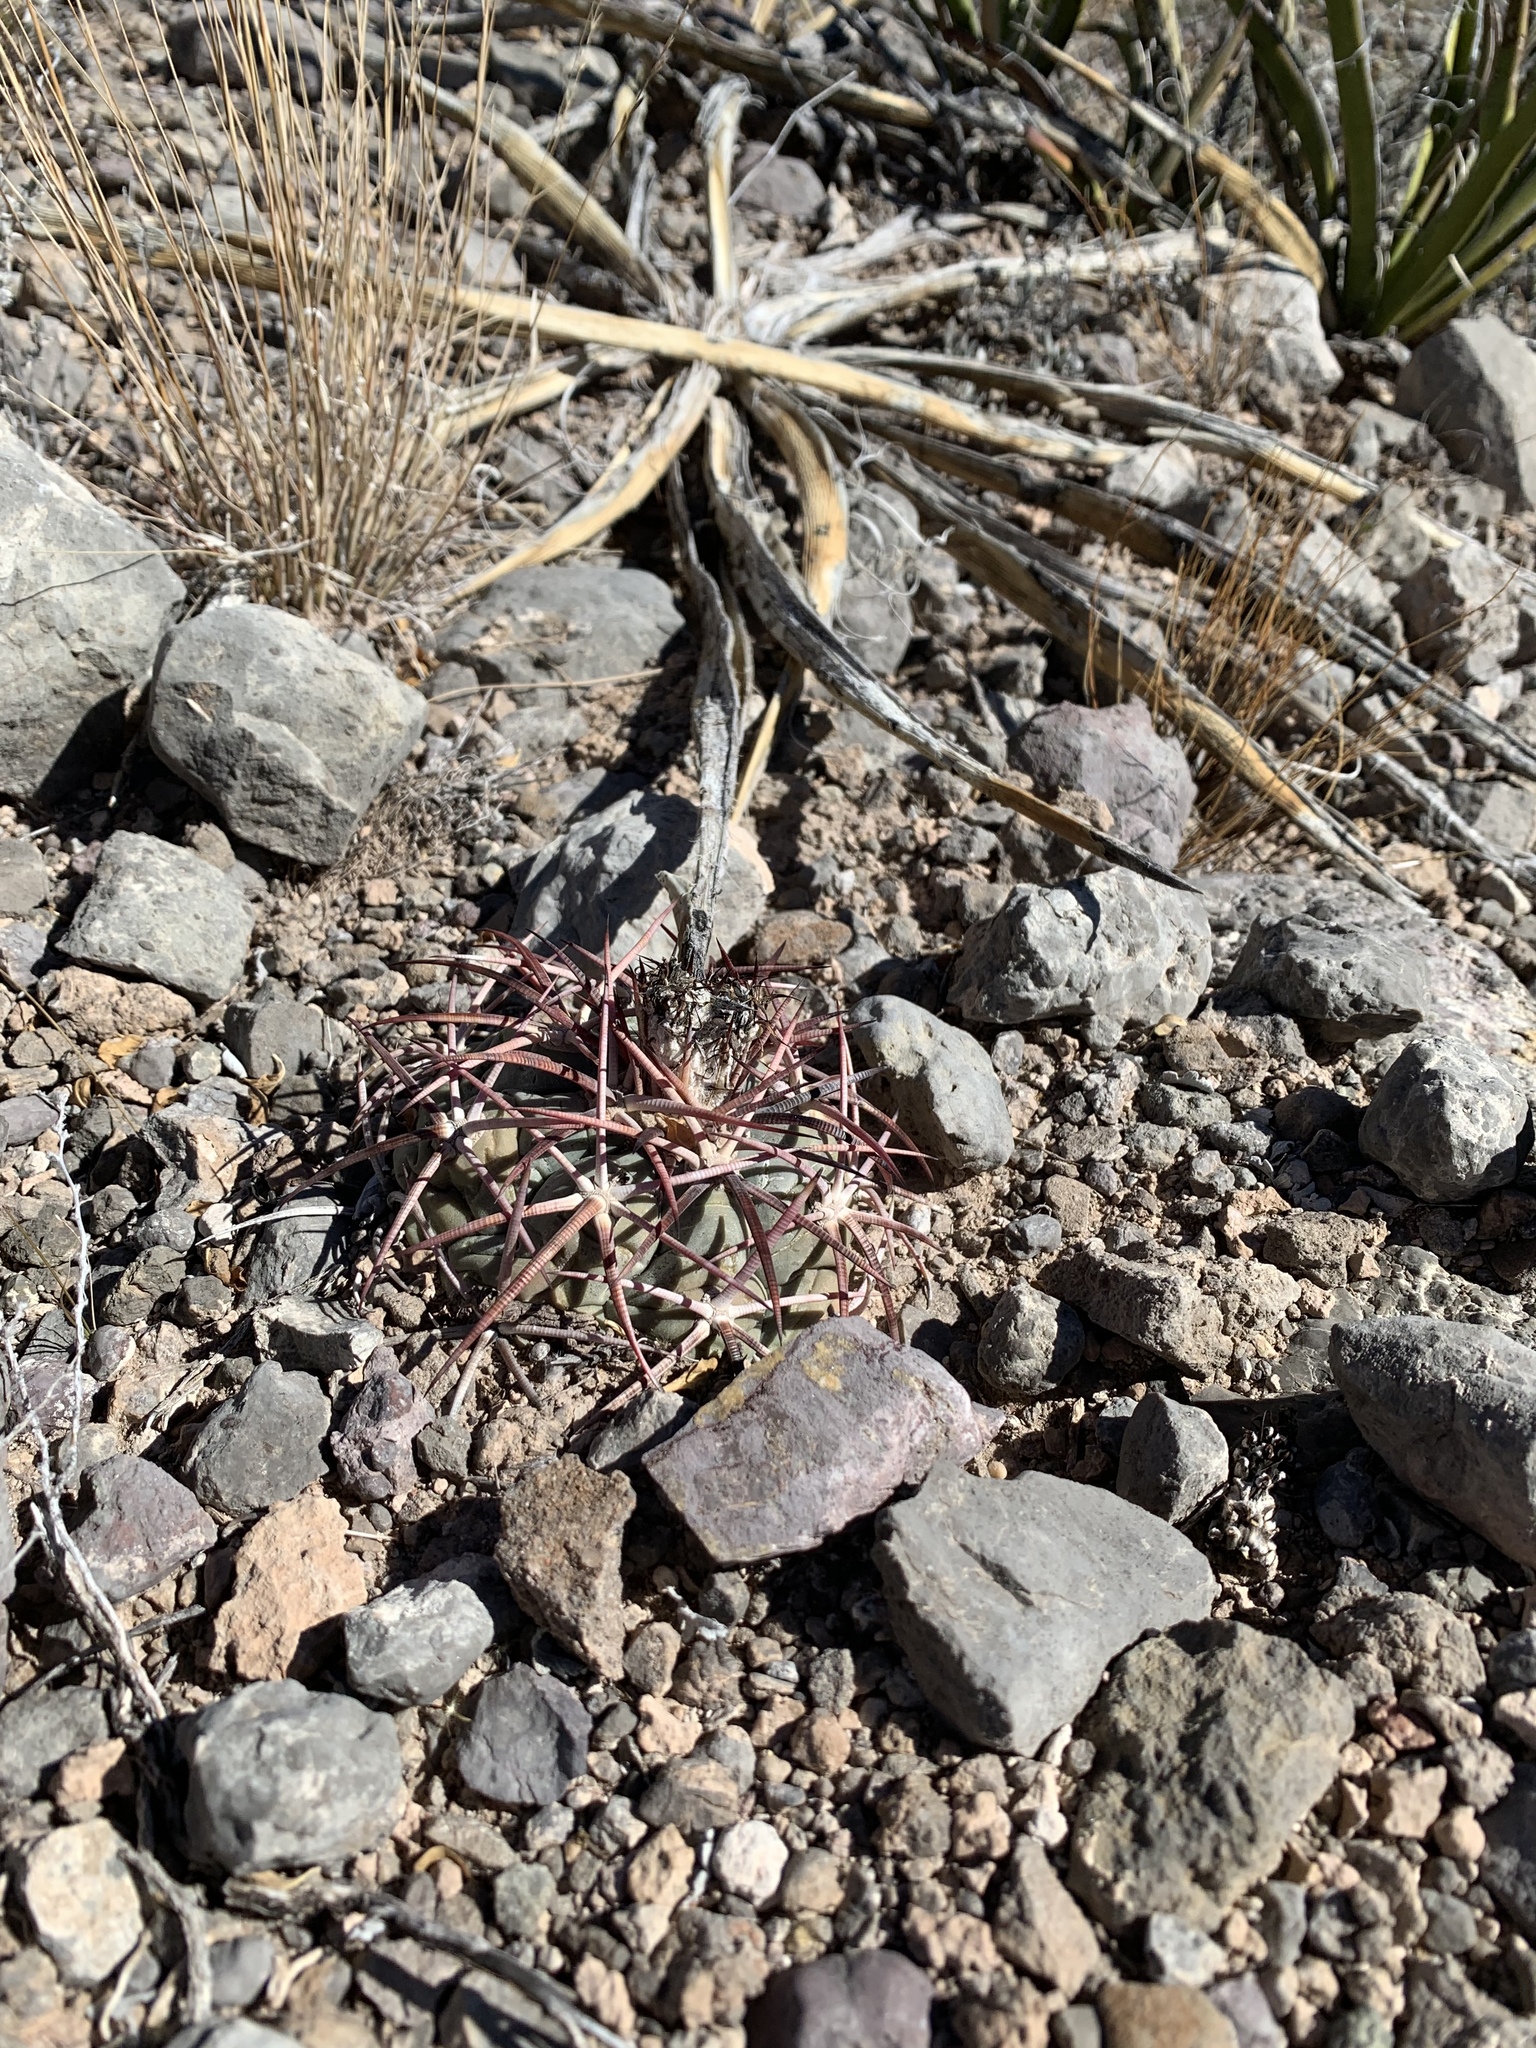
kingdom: Plantae
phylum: Tracheophyta
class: Magnoliopsida
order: Caryophyllales
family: Cactaceae
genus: Echinocactus
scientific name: Echinocactus horizonthalonius
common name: Devilshead
